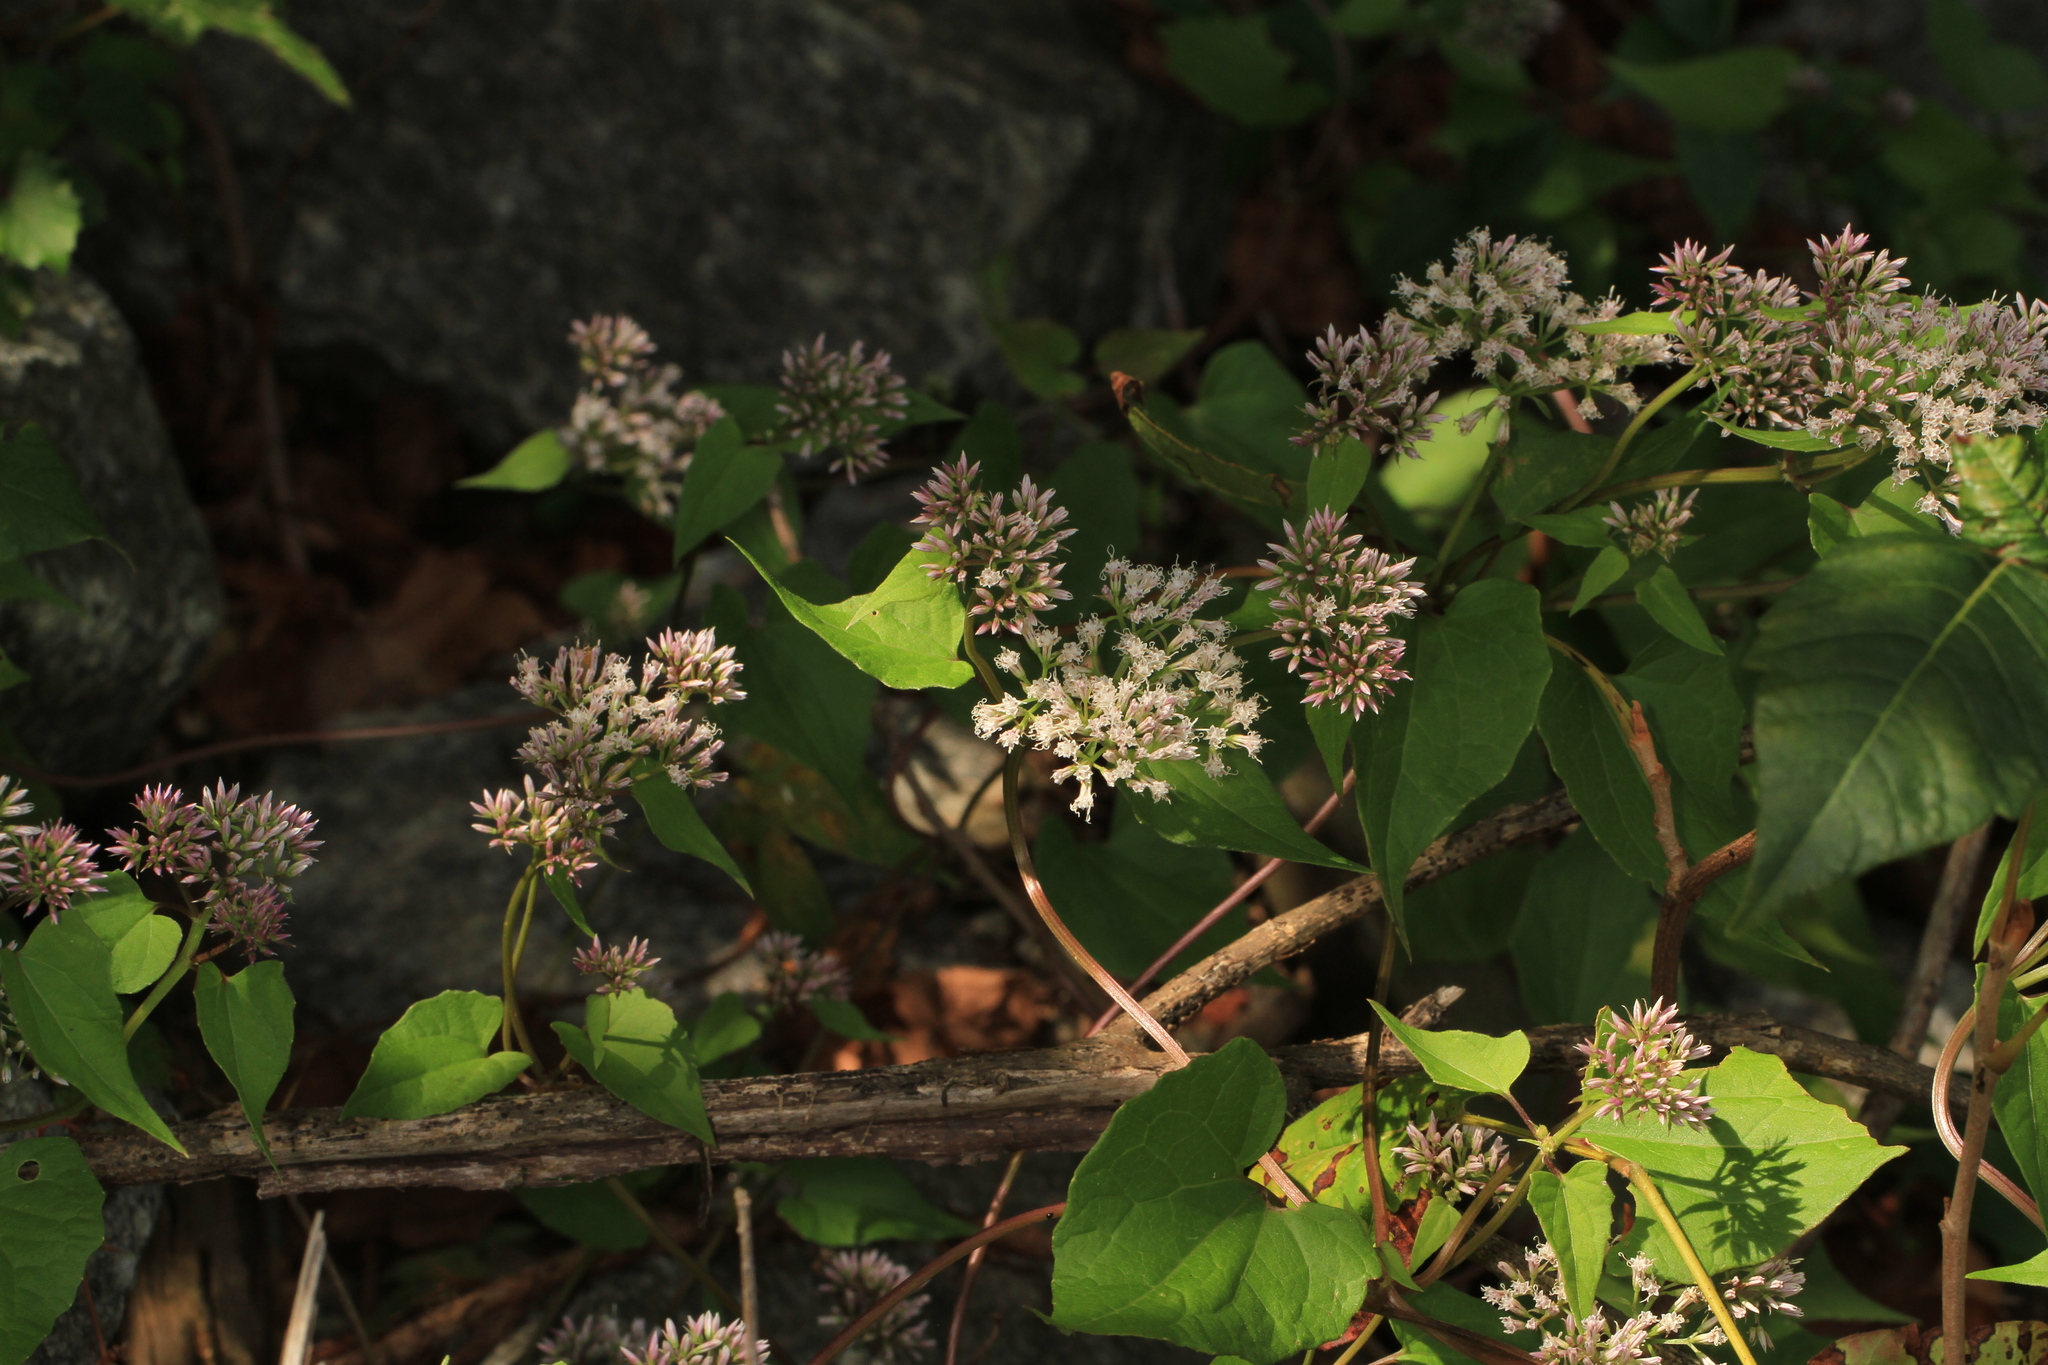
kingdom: Plantae
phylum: Tracheophyta
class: Magnoliopsida
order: Asterales
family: Asteraceae
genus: Mikania
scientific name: Mikania scandens
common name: Climbing hempvine
